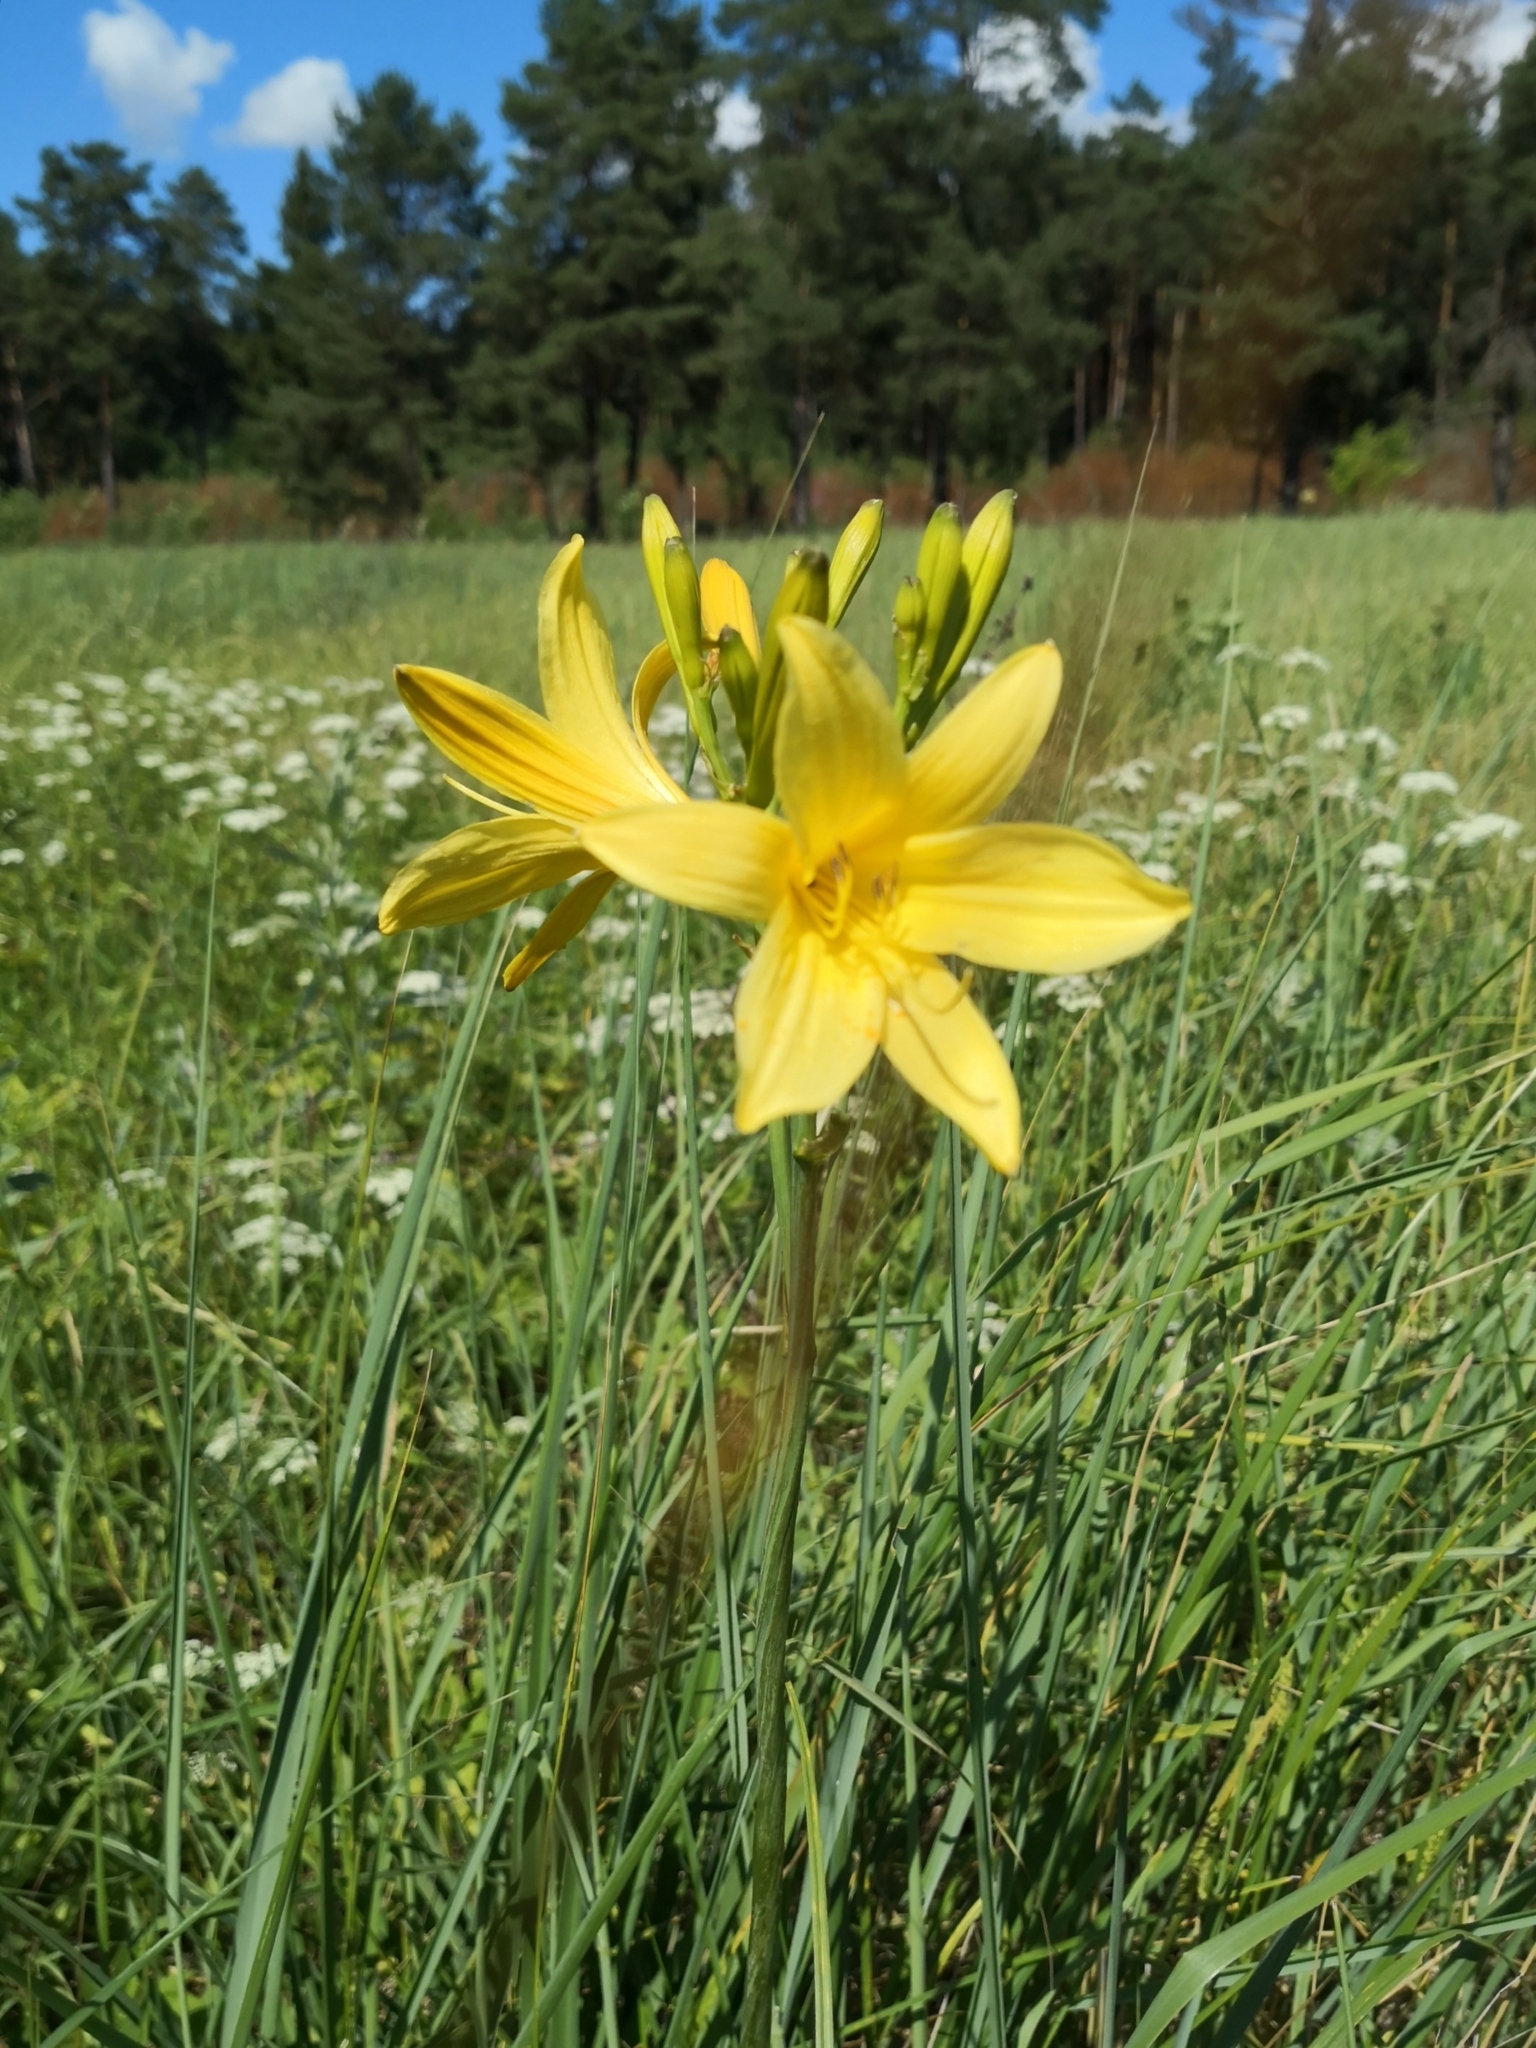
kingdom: Plantae
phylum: Tracheophyta
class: Liliopsida
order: Asparagales
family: Asphodelaceae
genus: Hemerocallis
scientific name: Hemerocallis minor
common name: Small daylily
